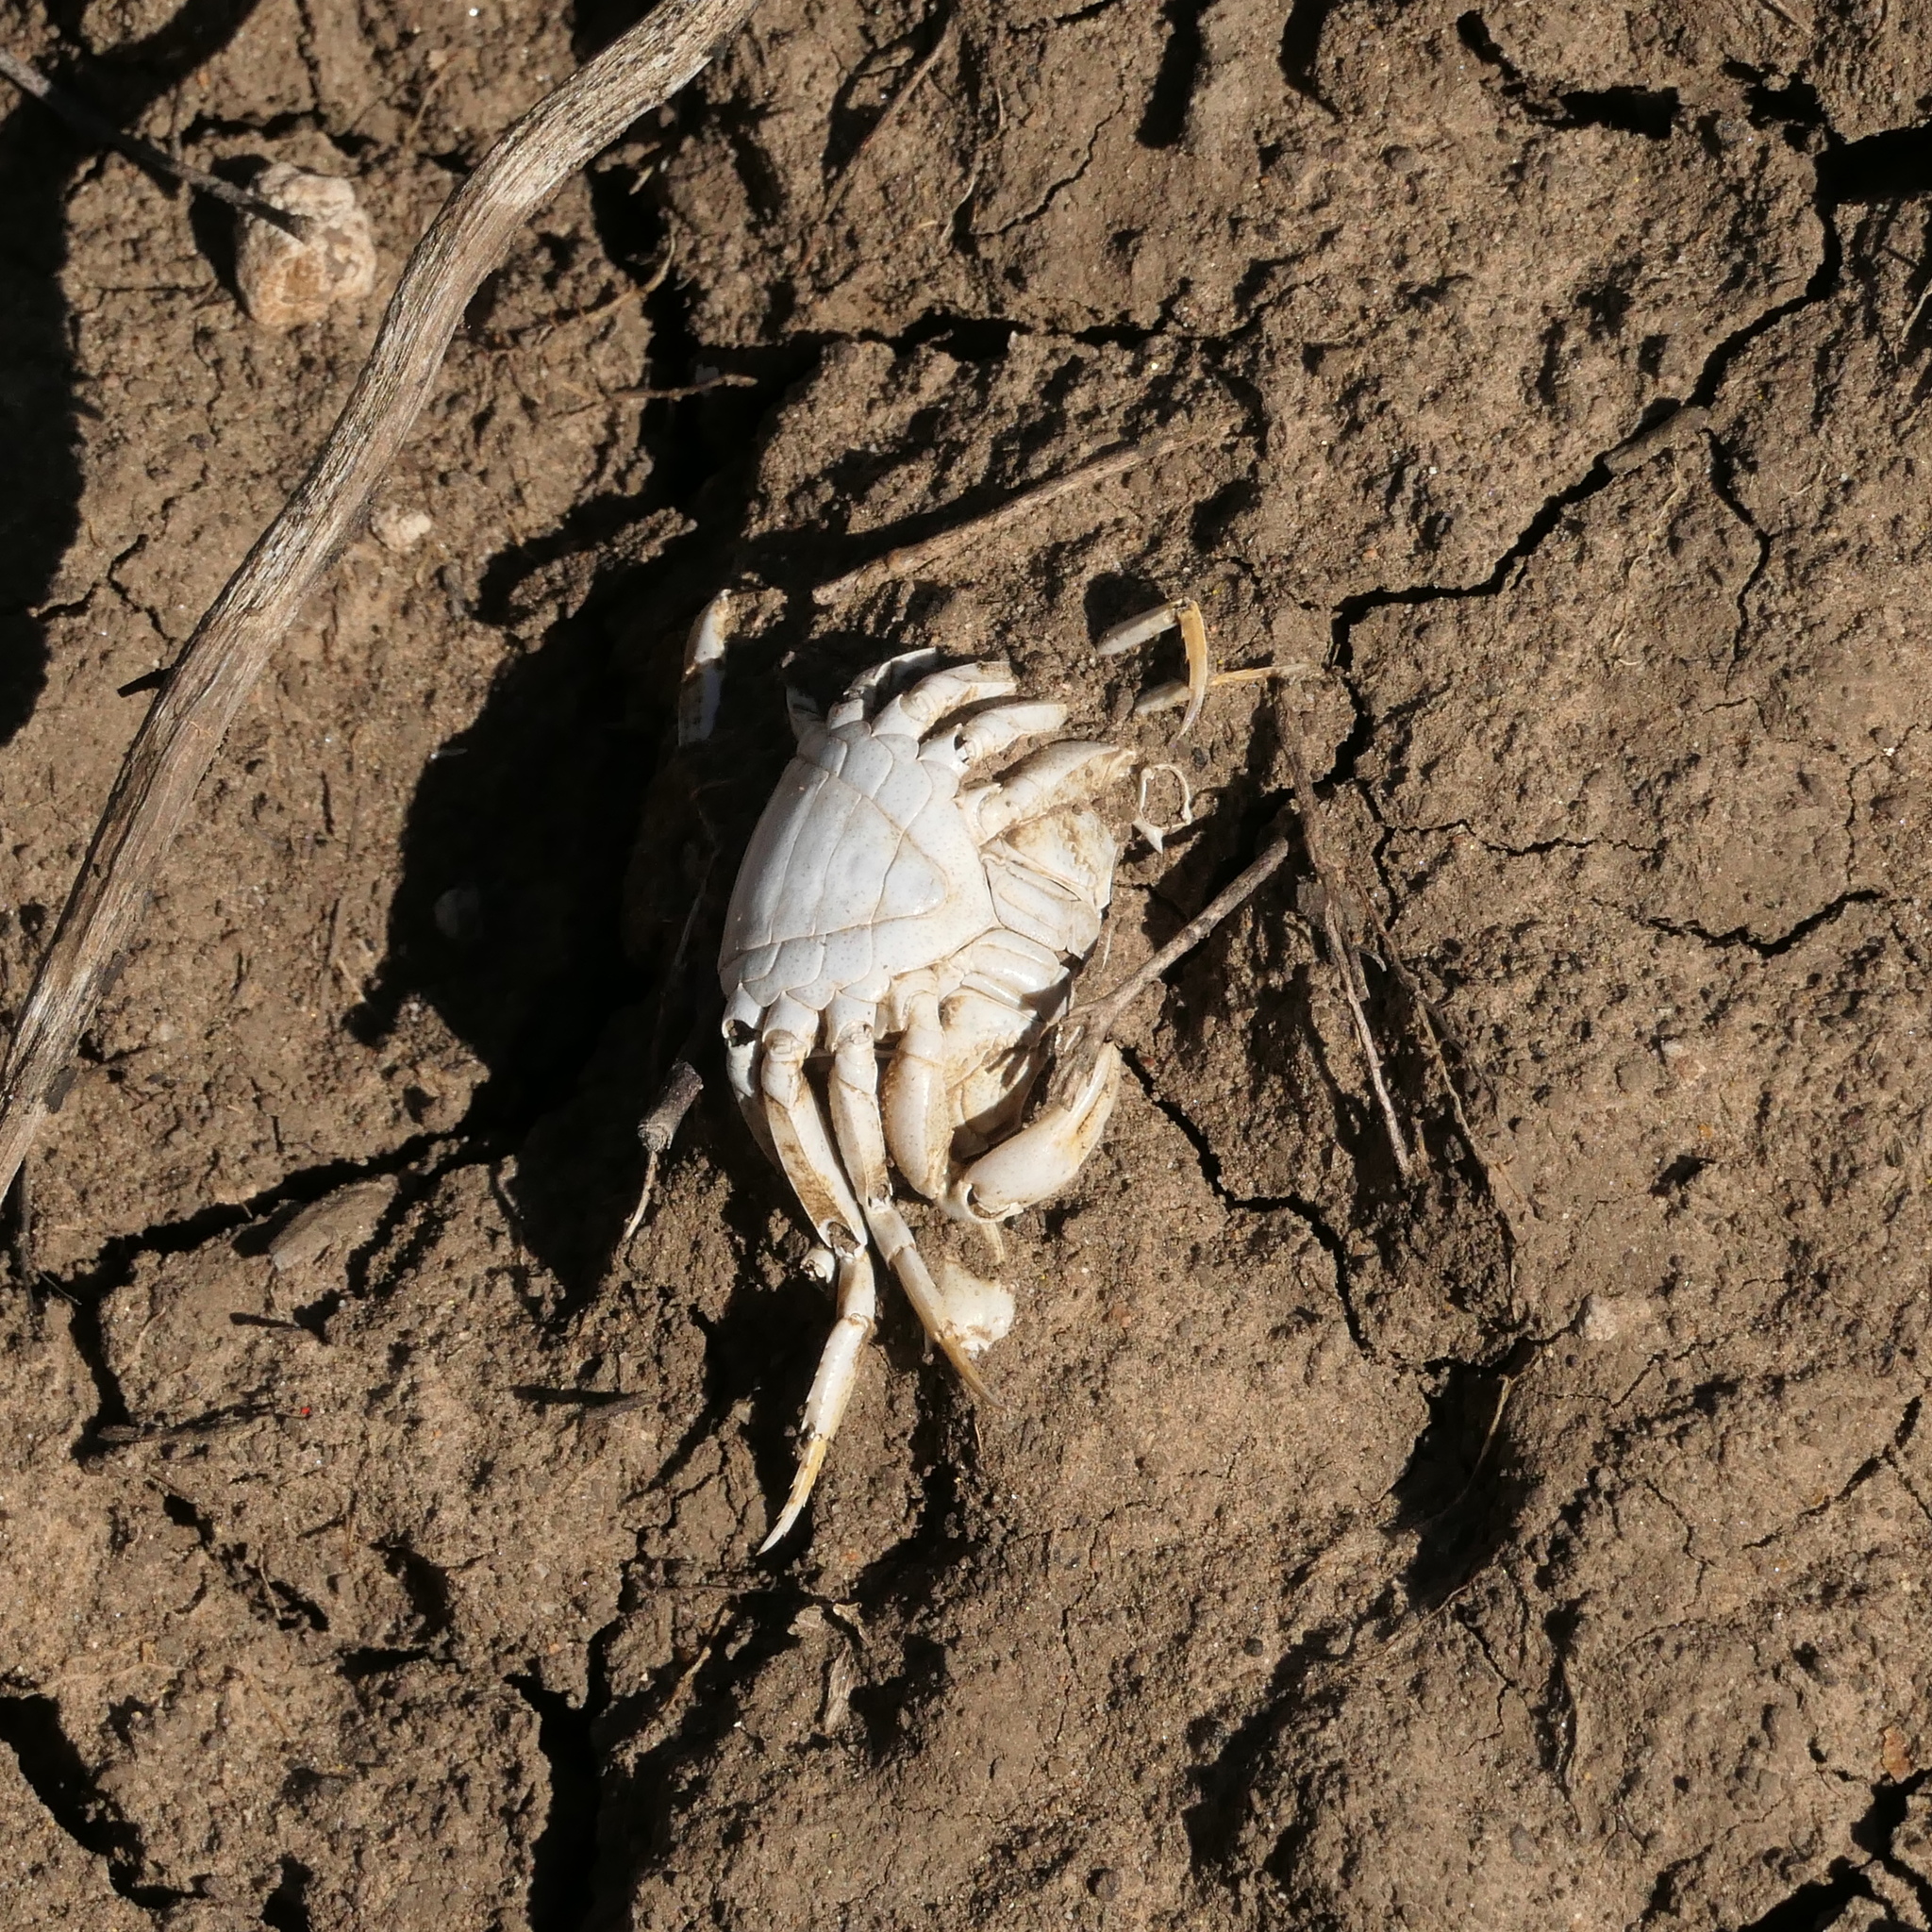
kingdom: Animalia
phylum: Arthropoda
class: Malacostraca
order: Decapoda
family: Gecarcinucidae
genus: Austrothelphusa
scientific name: Austrothelphusa transversa
